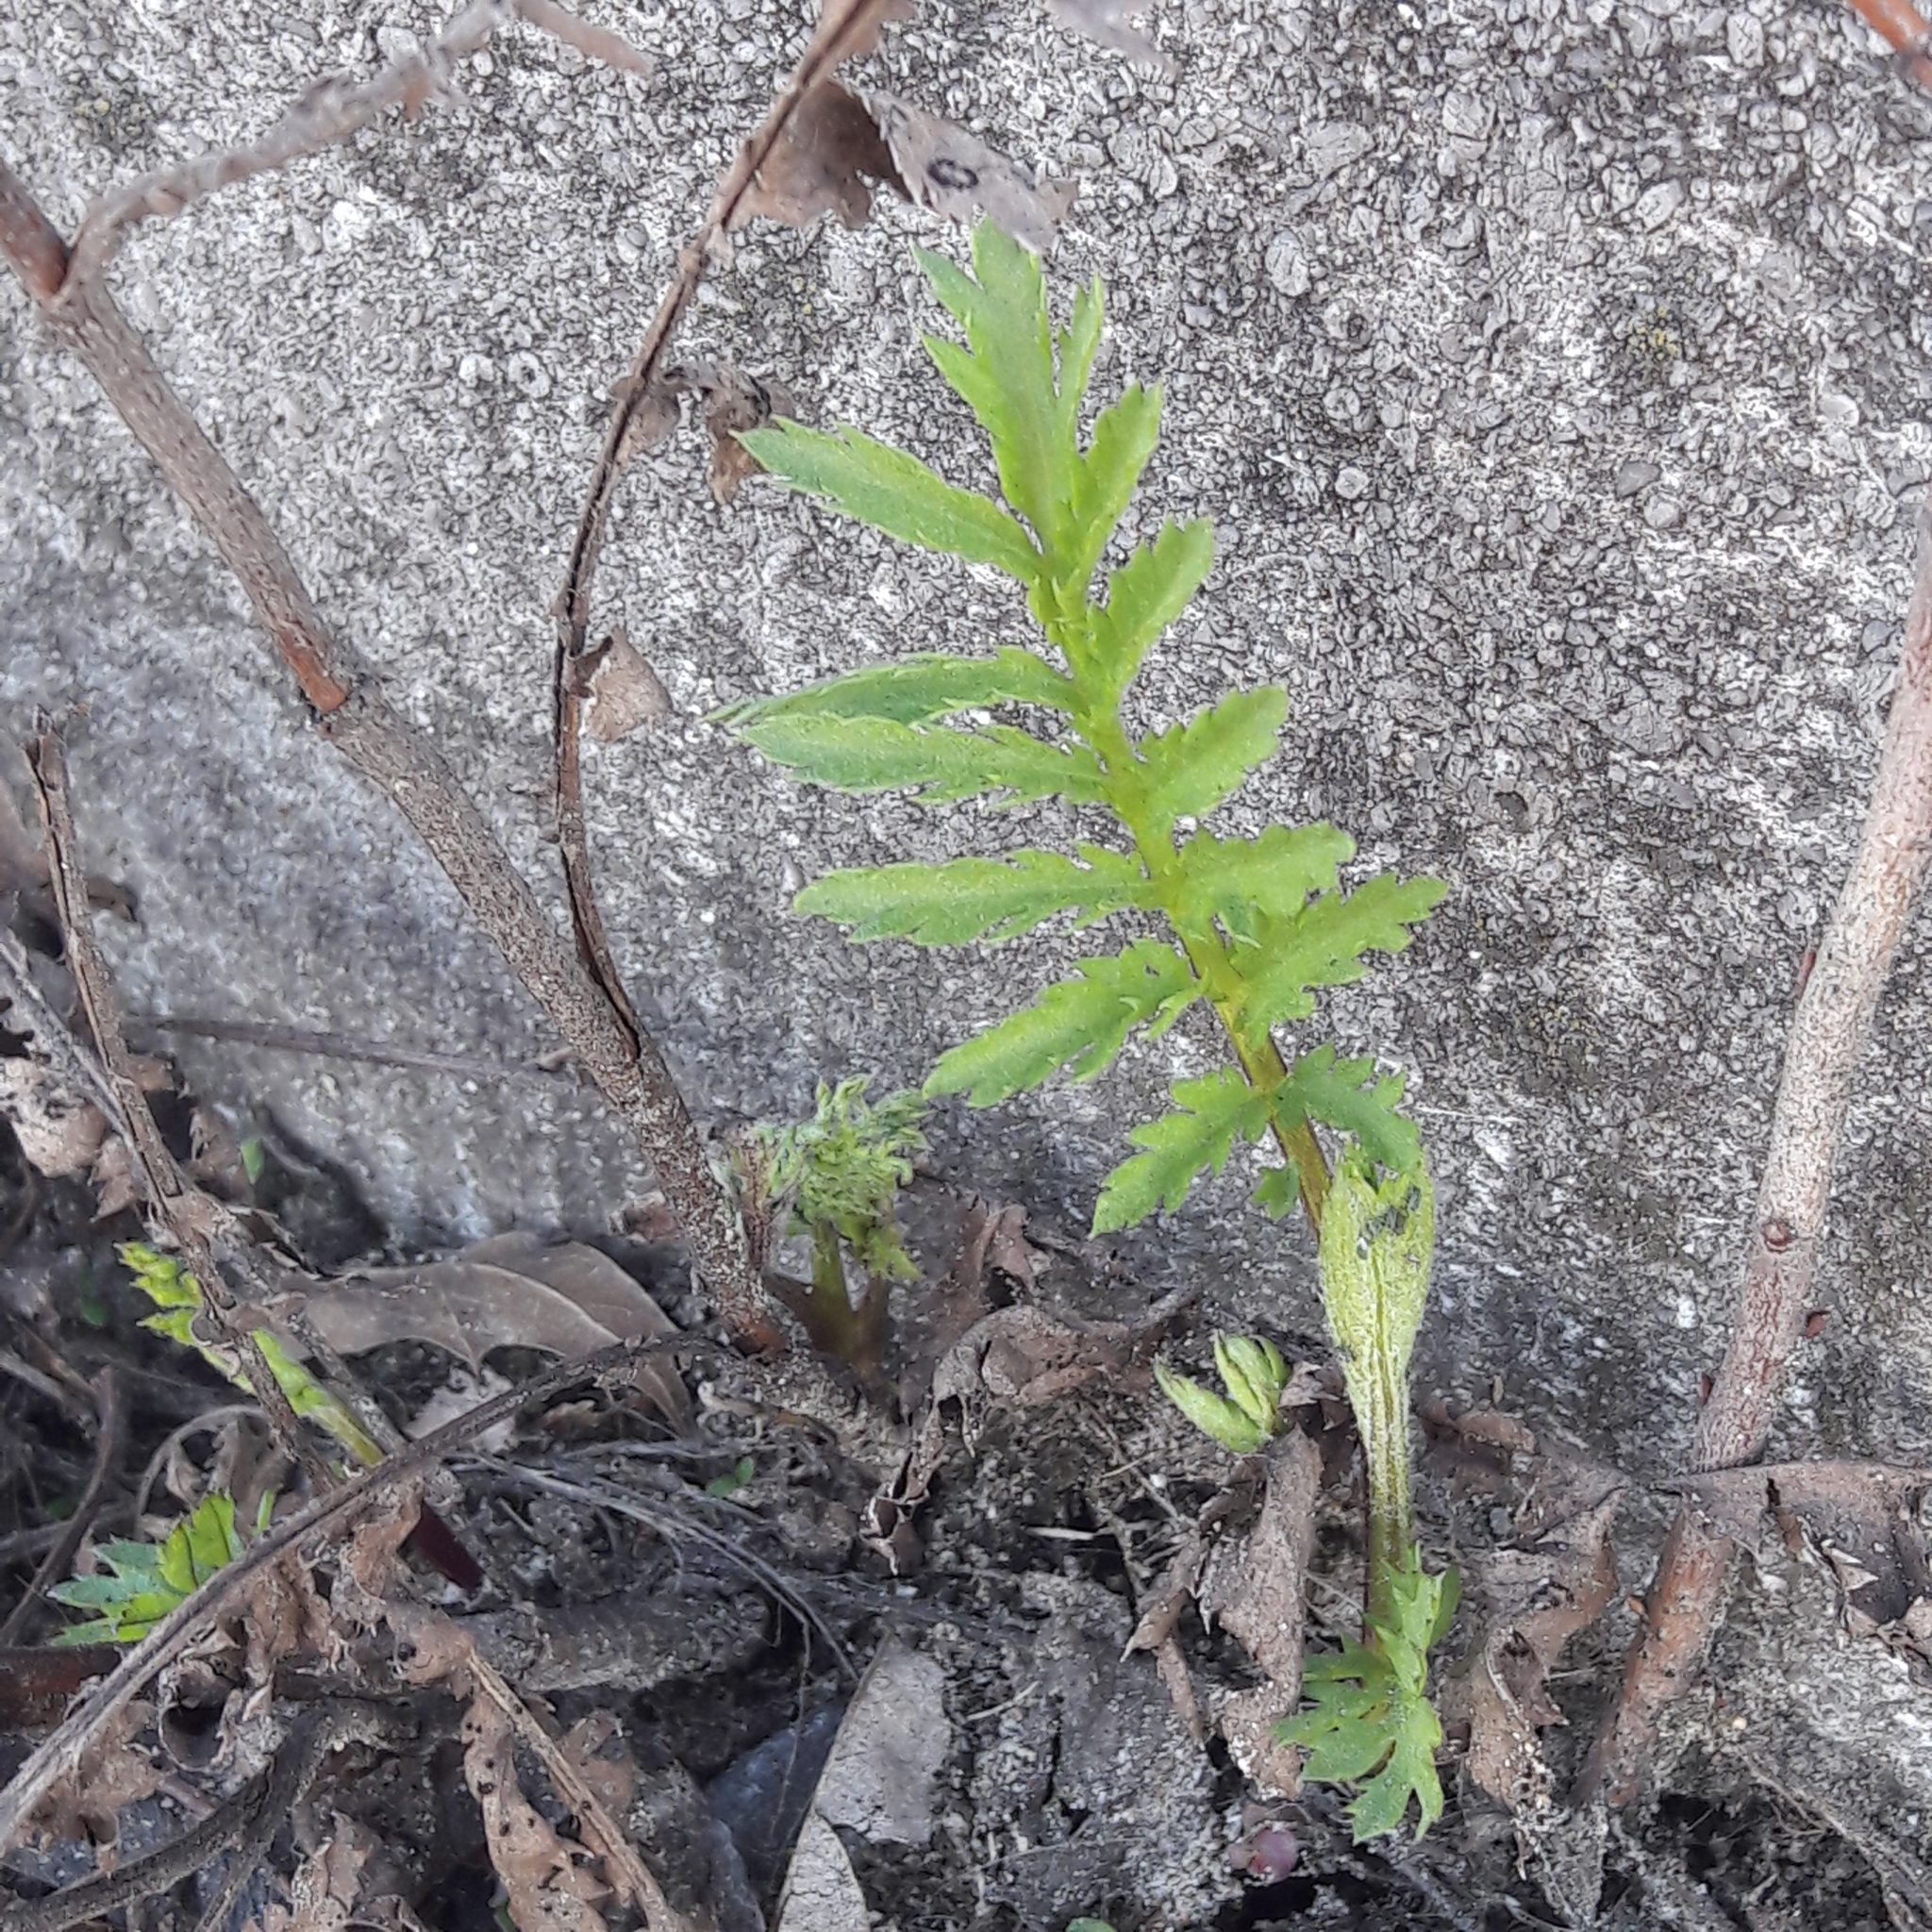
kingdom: Plantae
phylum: Tracheophyta
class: Magnoliopsida
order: Asterales
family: Asteraceae
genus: Tanacetum
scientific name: Tanacetum vulgare
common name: Common tansy
